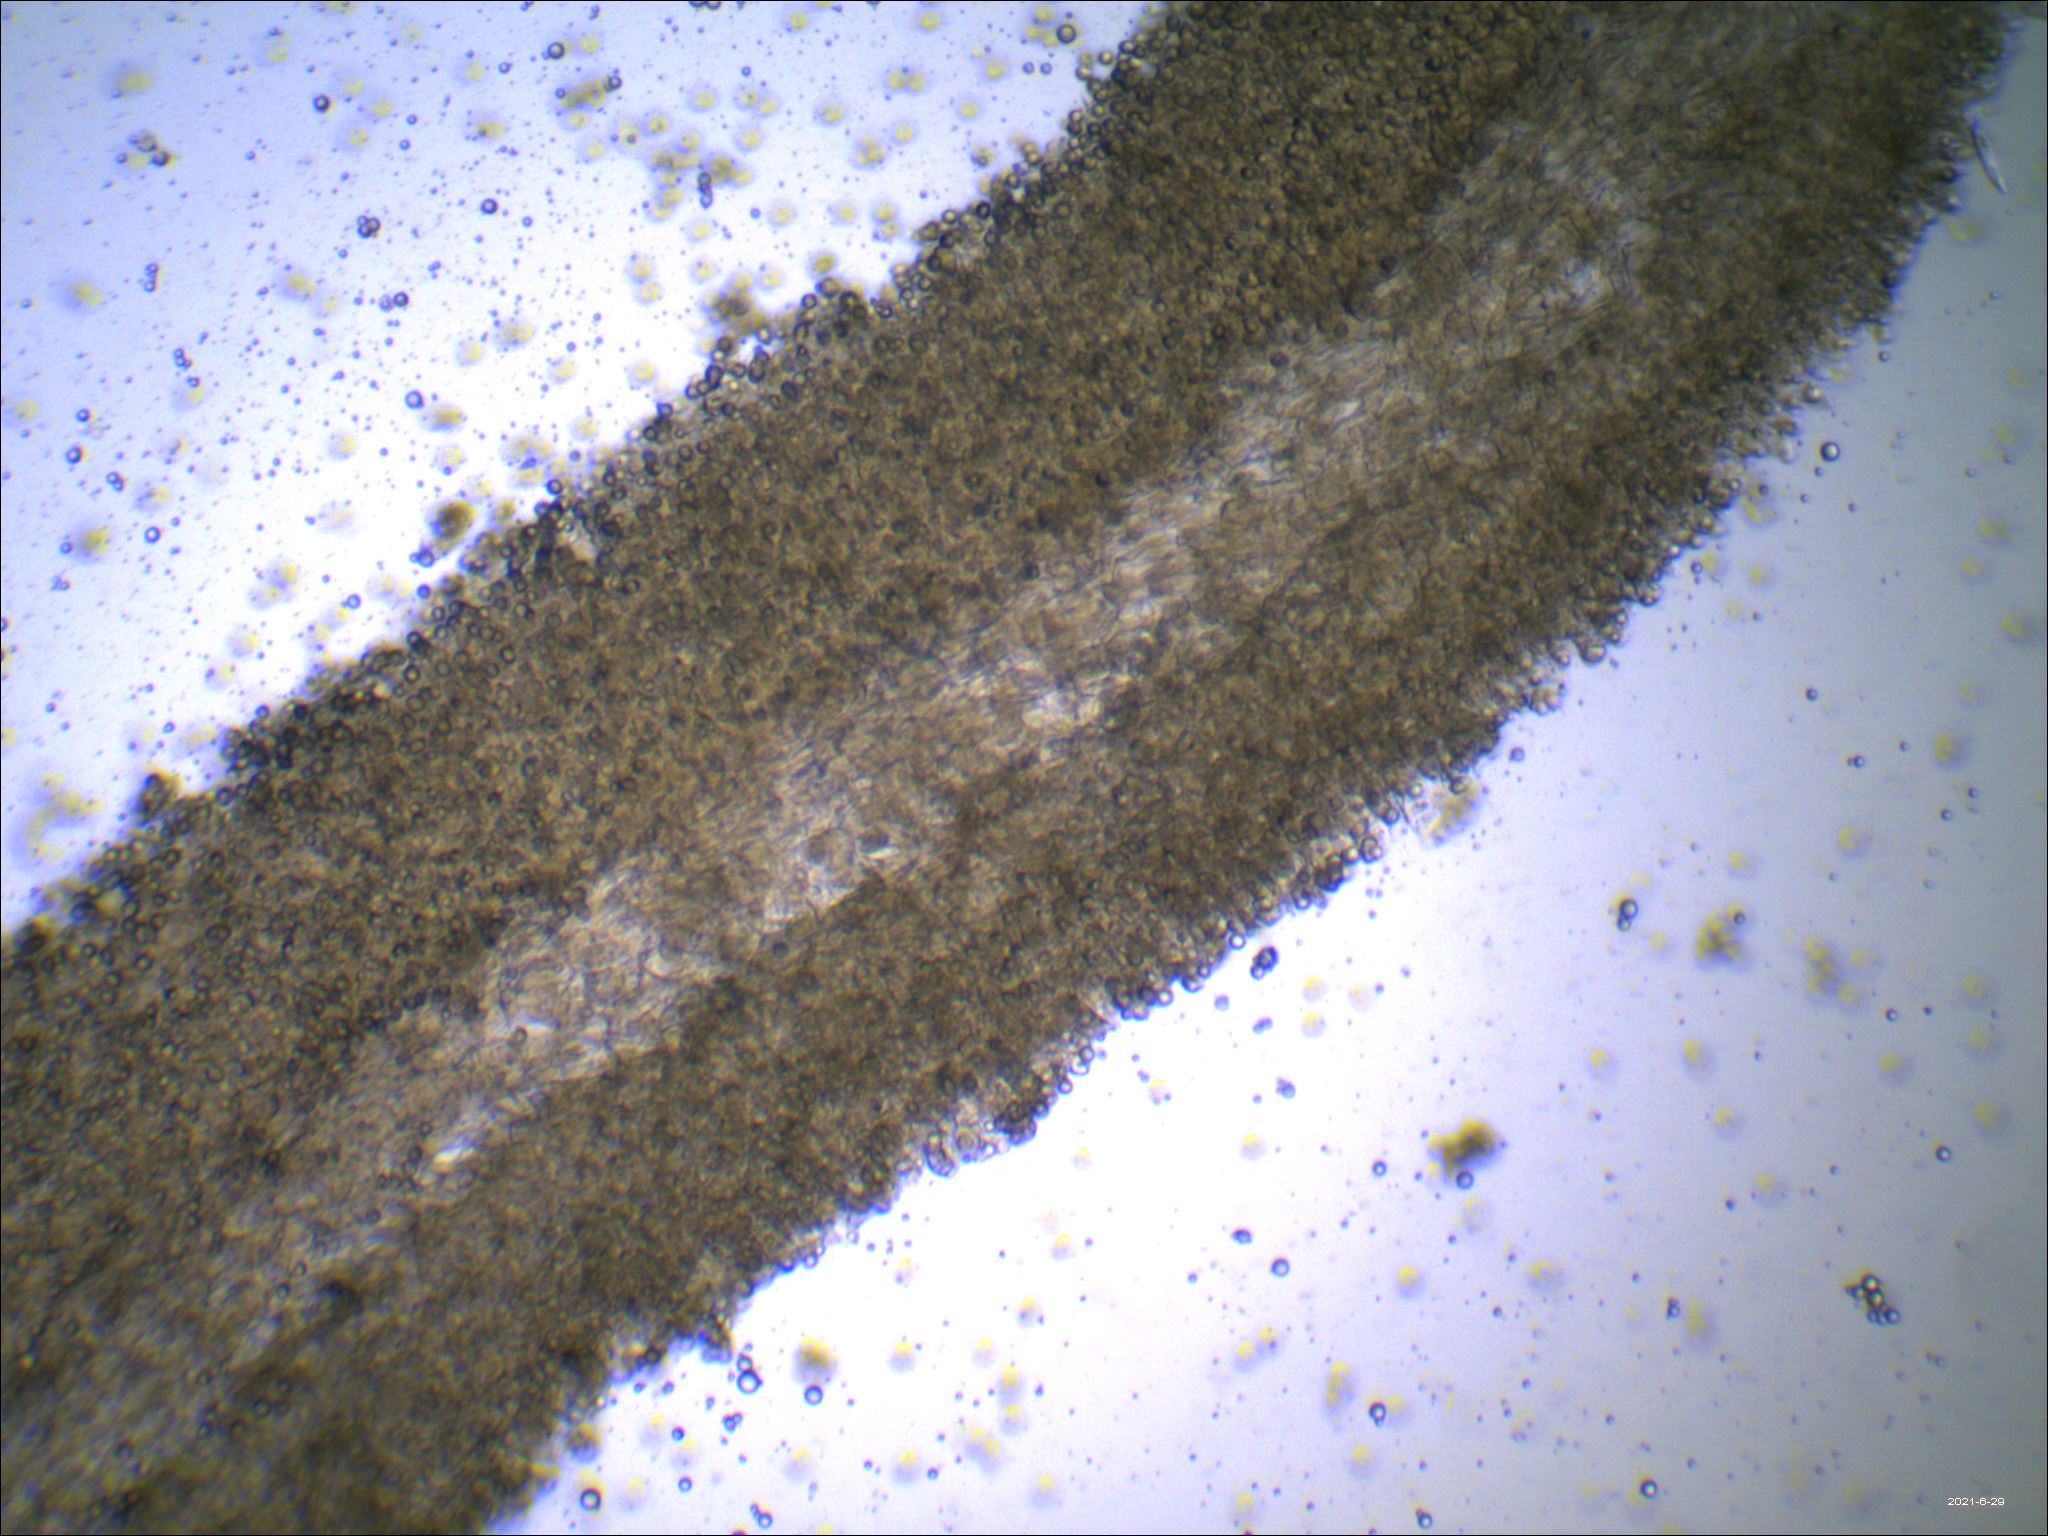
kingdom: Fungi
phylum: Basidiomycota
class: Agaricomycetes
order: Russulales
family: Russulaceae
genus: Russula
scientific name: Russula mariae
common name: Purple-bloom russula
